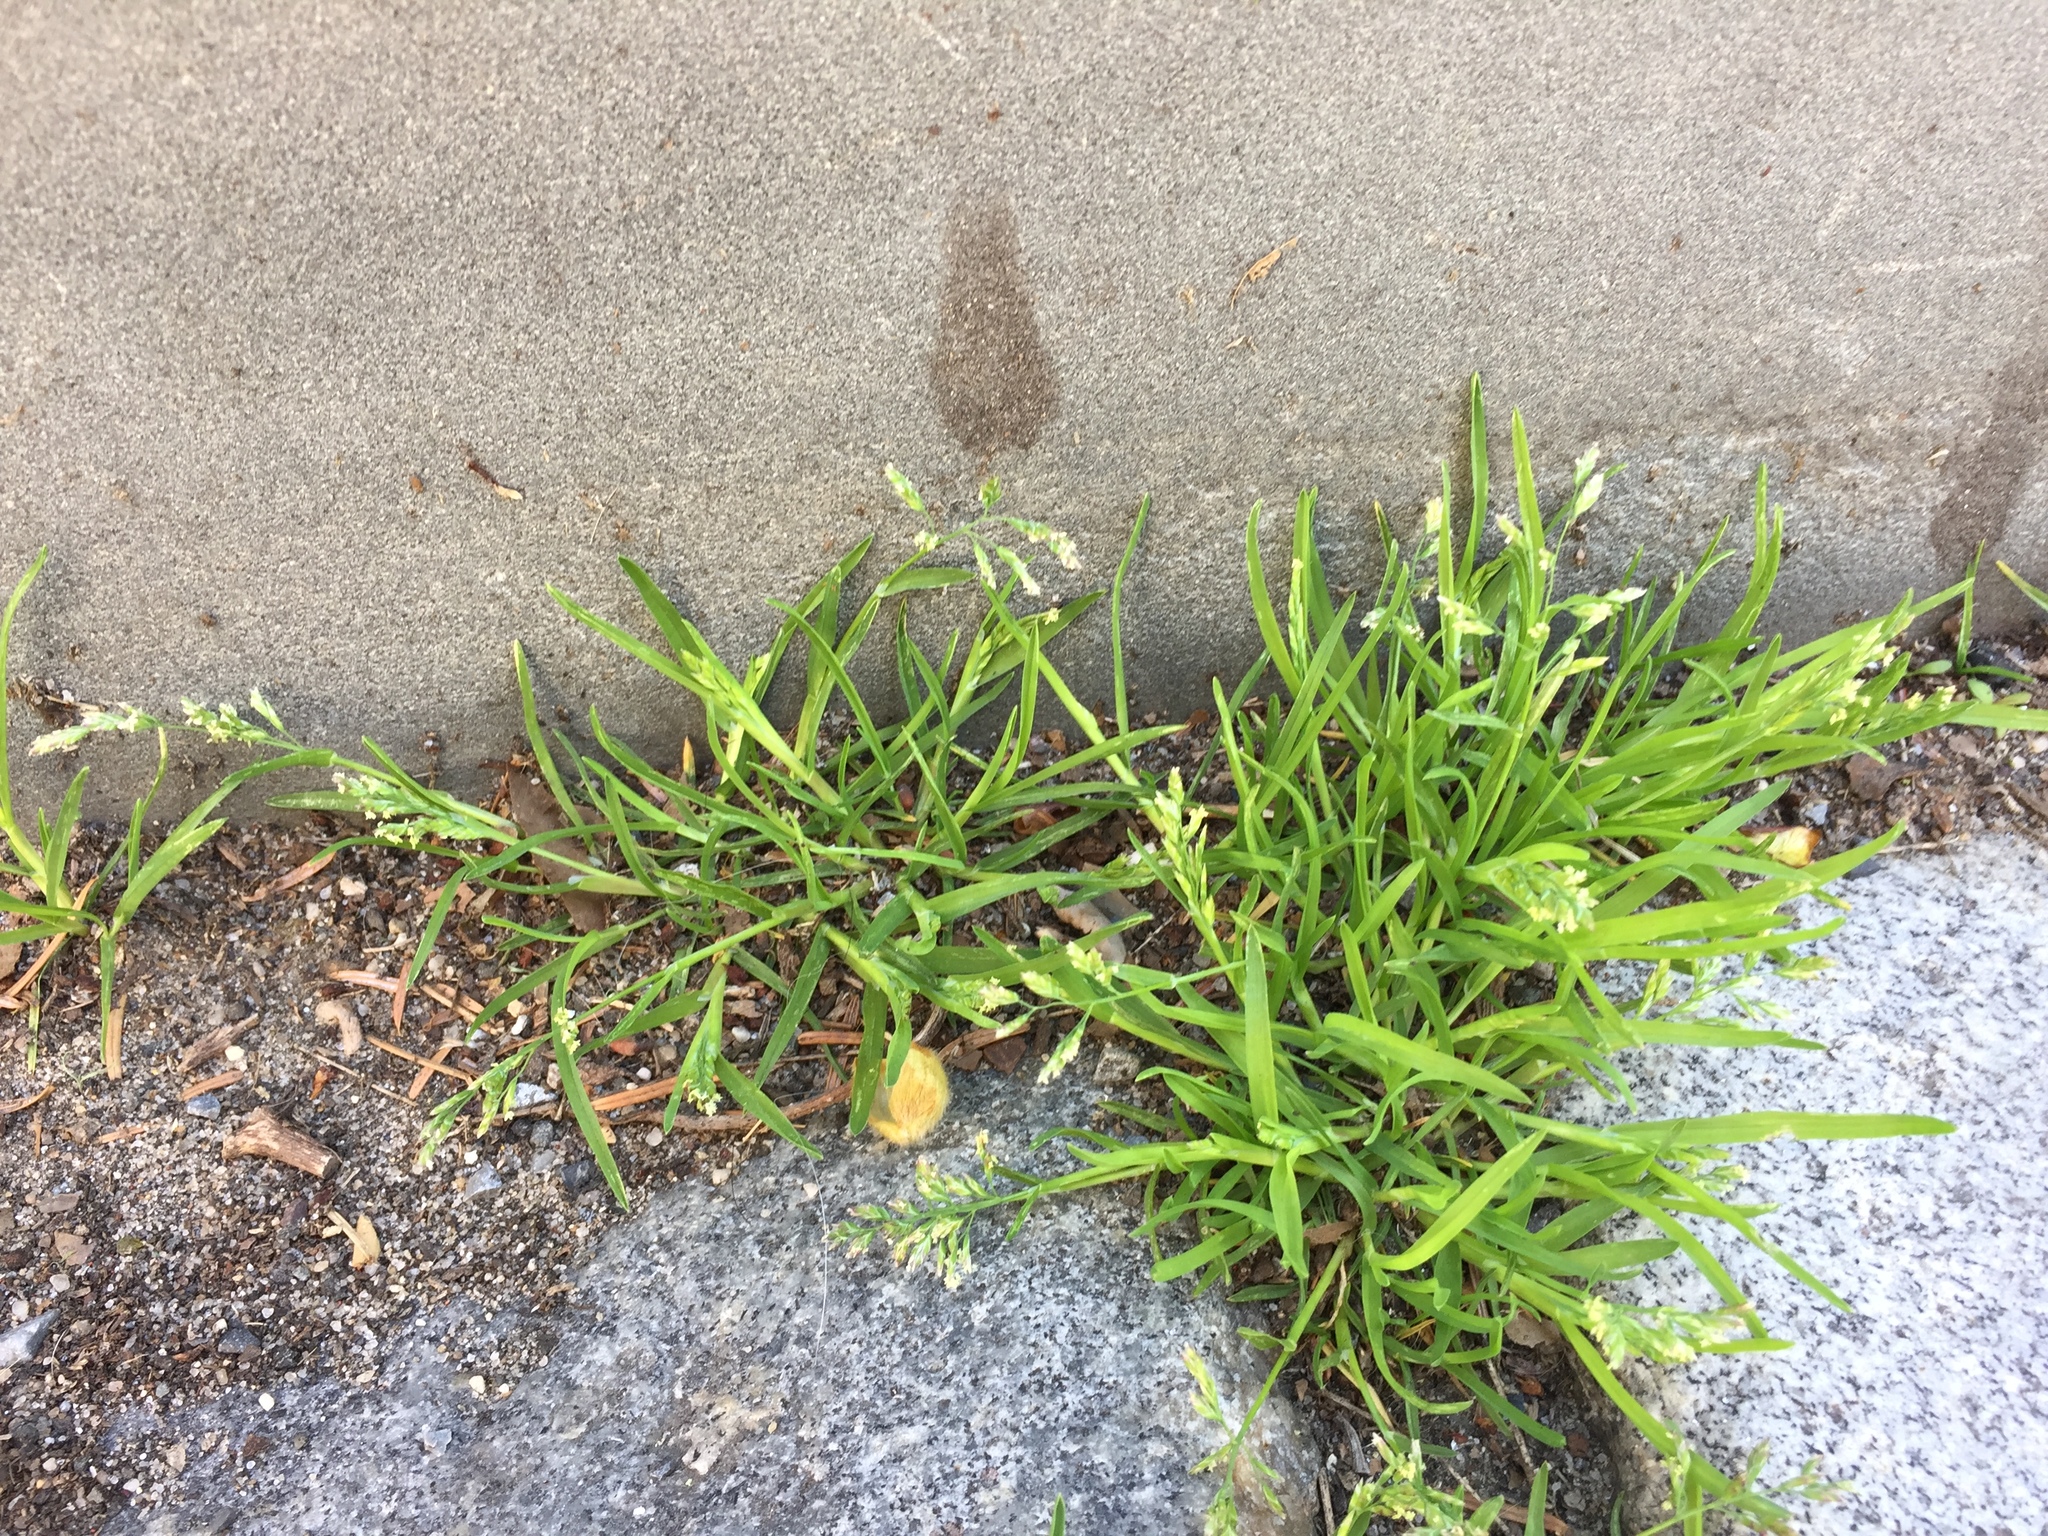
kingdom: Plantae
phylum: Tracheophyta
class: Liliopsida
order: Poales
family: Poaceae
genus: Poa
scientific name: Poa annua
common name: Annual bluegrass
